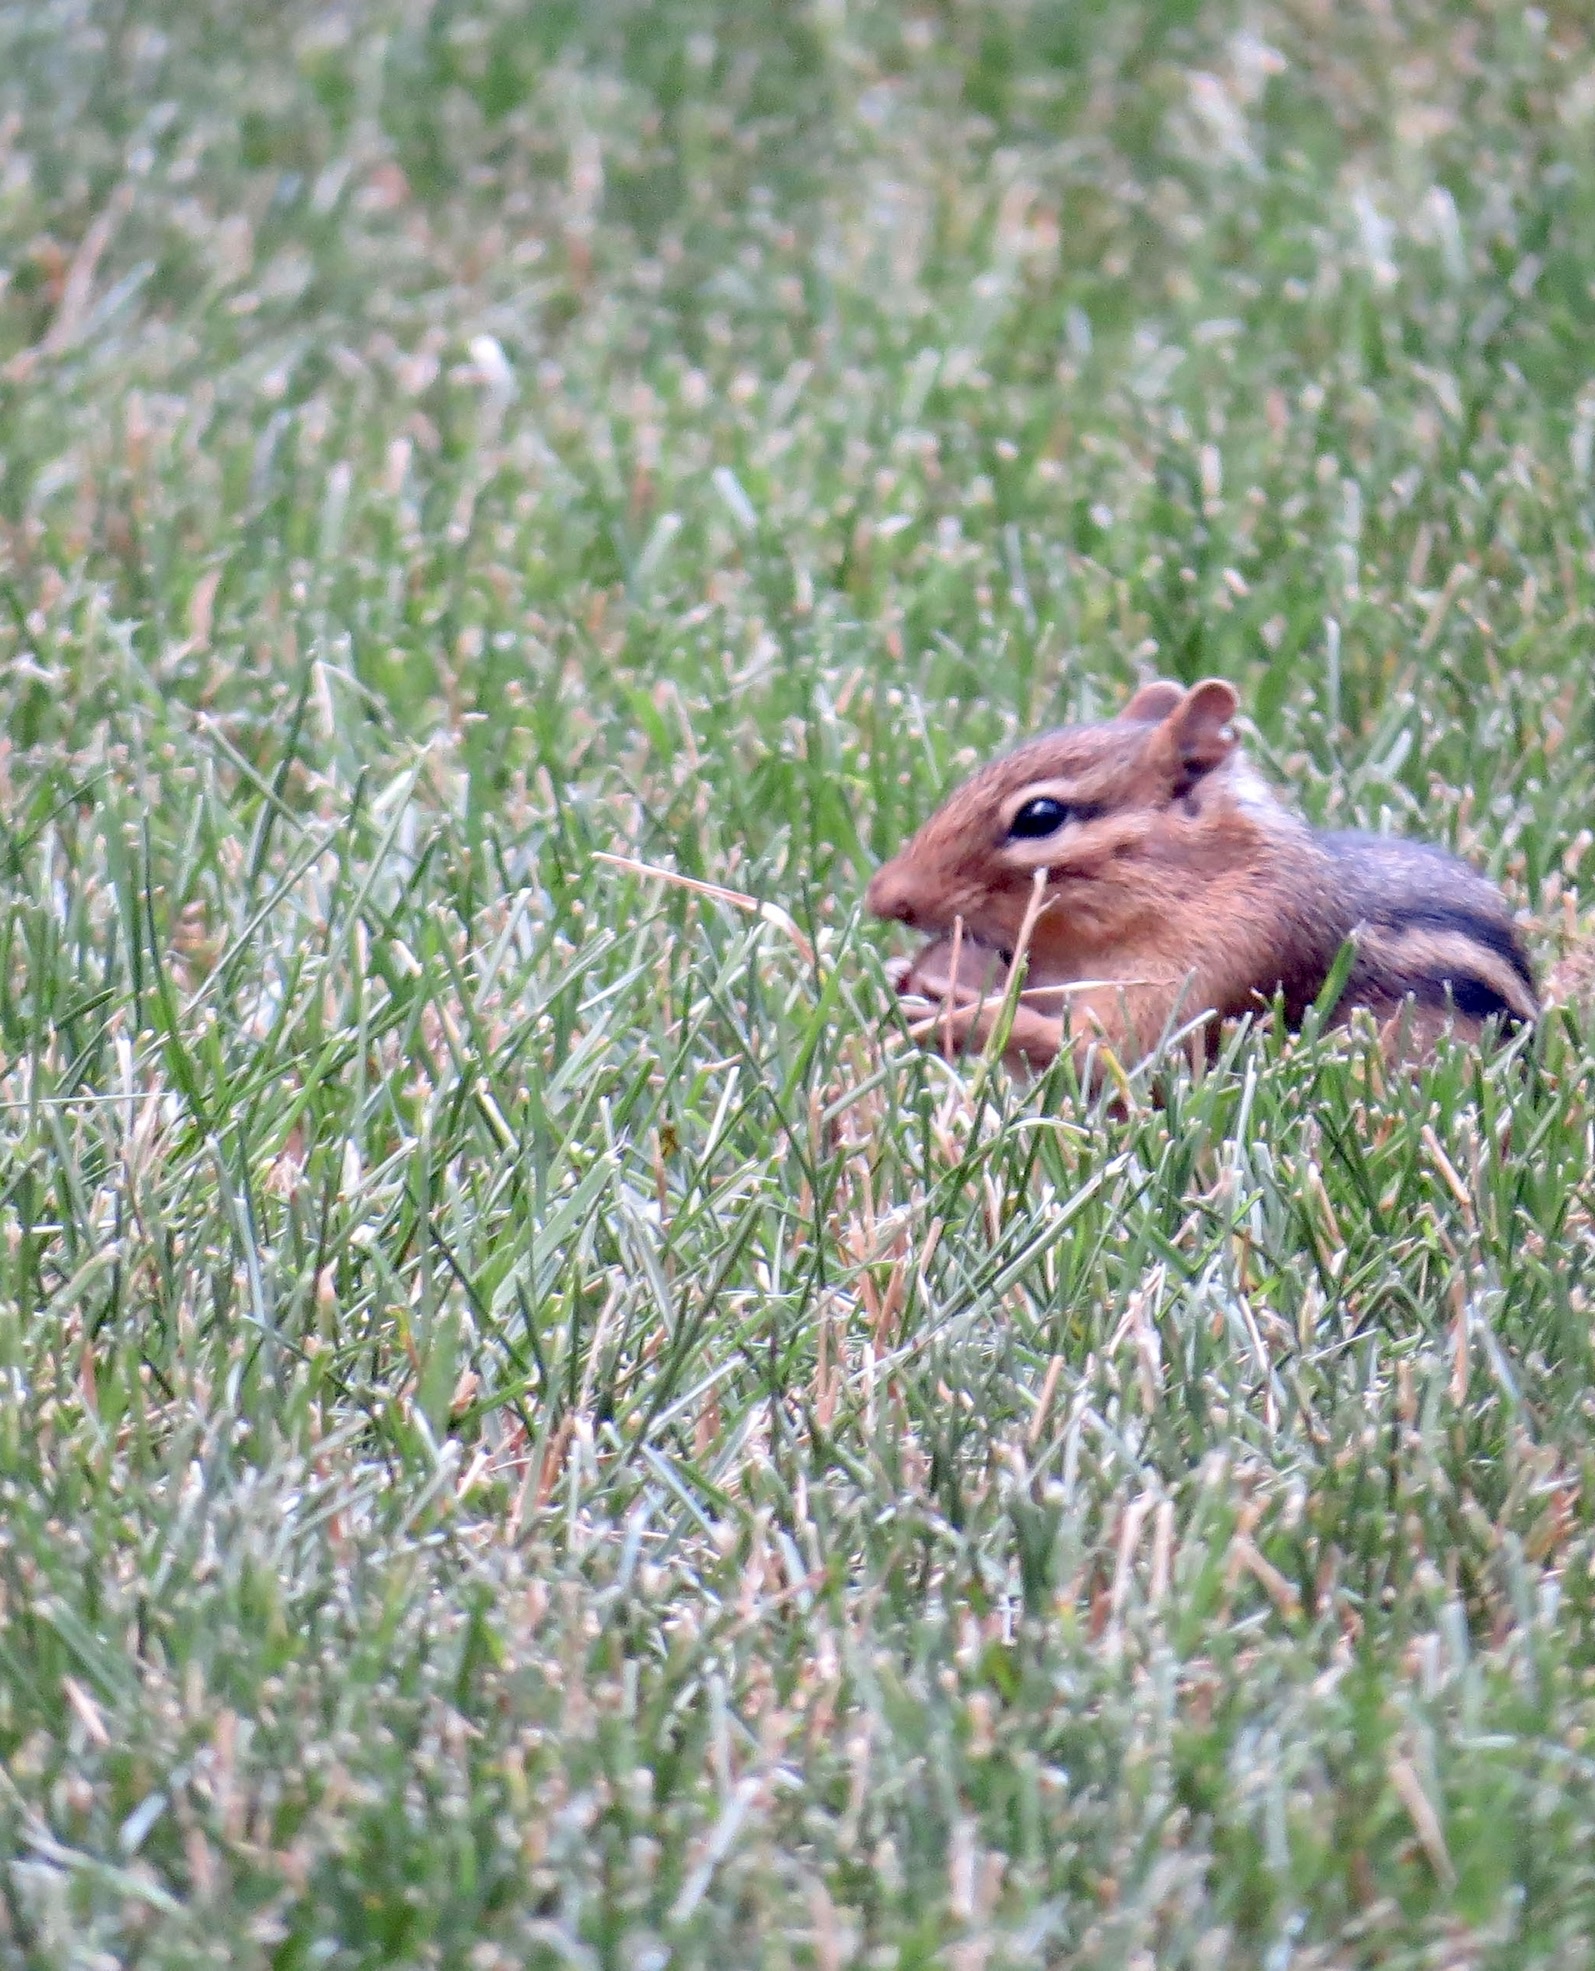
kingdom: Animalia
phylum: Chordata
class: Mammalia
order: Rodentia
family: Sciuridae
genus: Tamias
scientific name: Tamias striatus
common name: Eastern chipmunk
